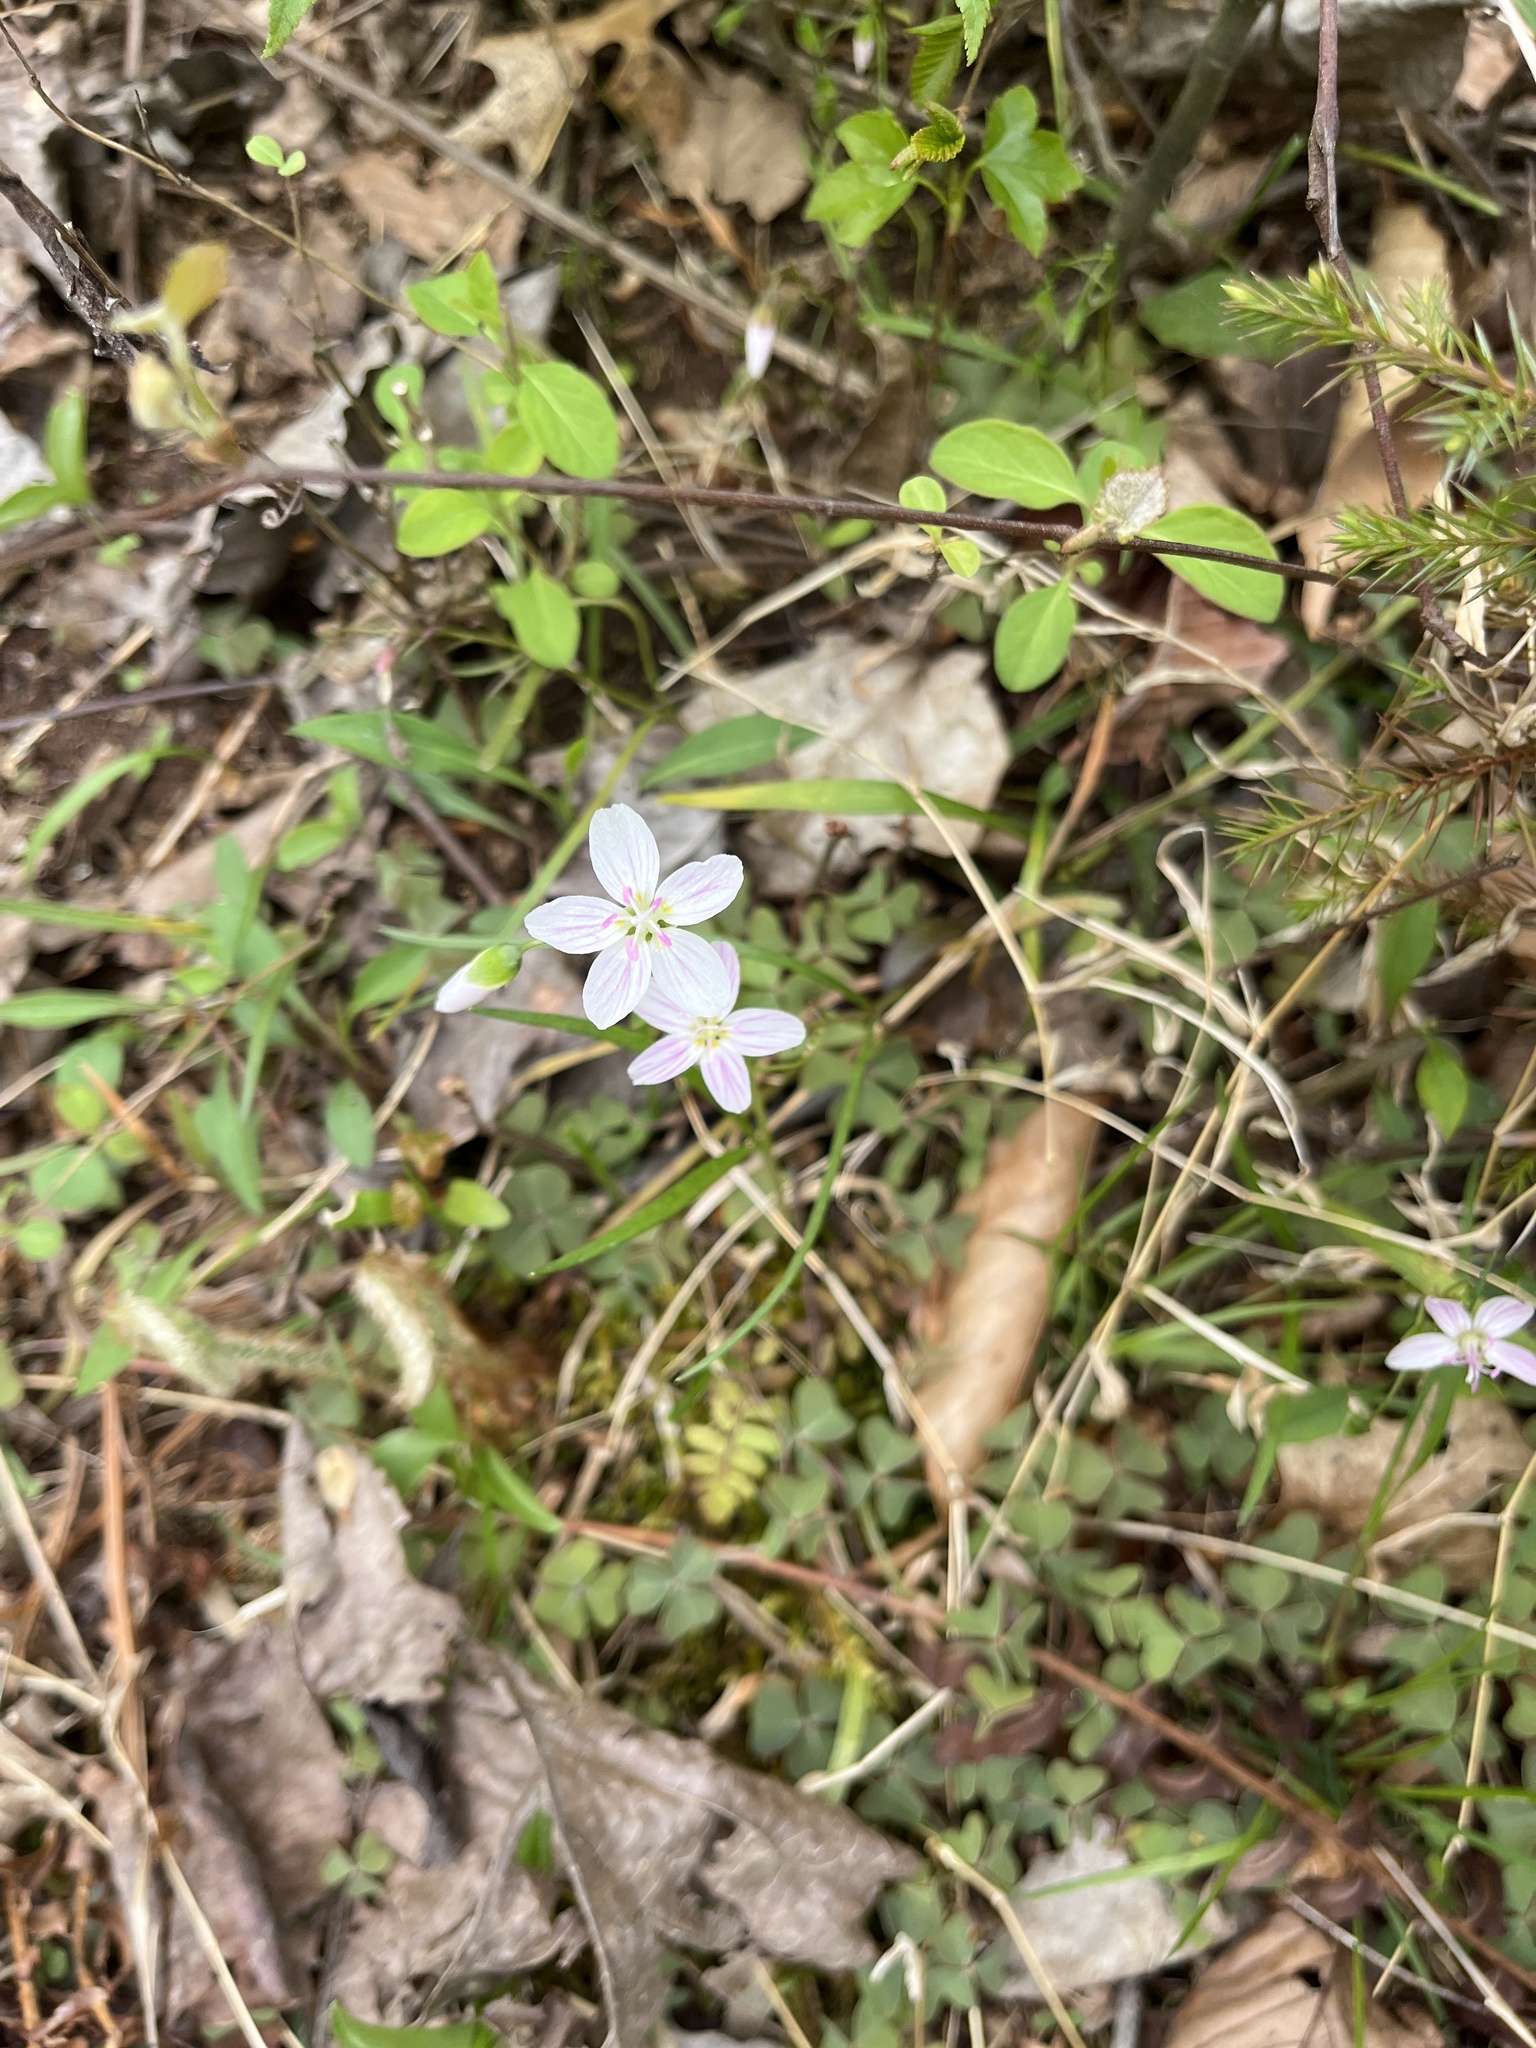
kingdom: Plantae
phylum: Tracheophyta
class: Magnoliopsida
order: Caryophyllales
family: Montiaceae
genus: Claytonia
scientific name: Claytonia virginica
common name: Virginia springbeauty
